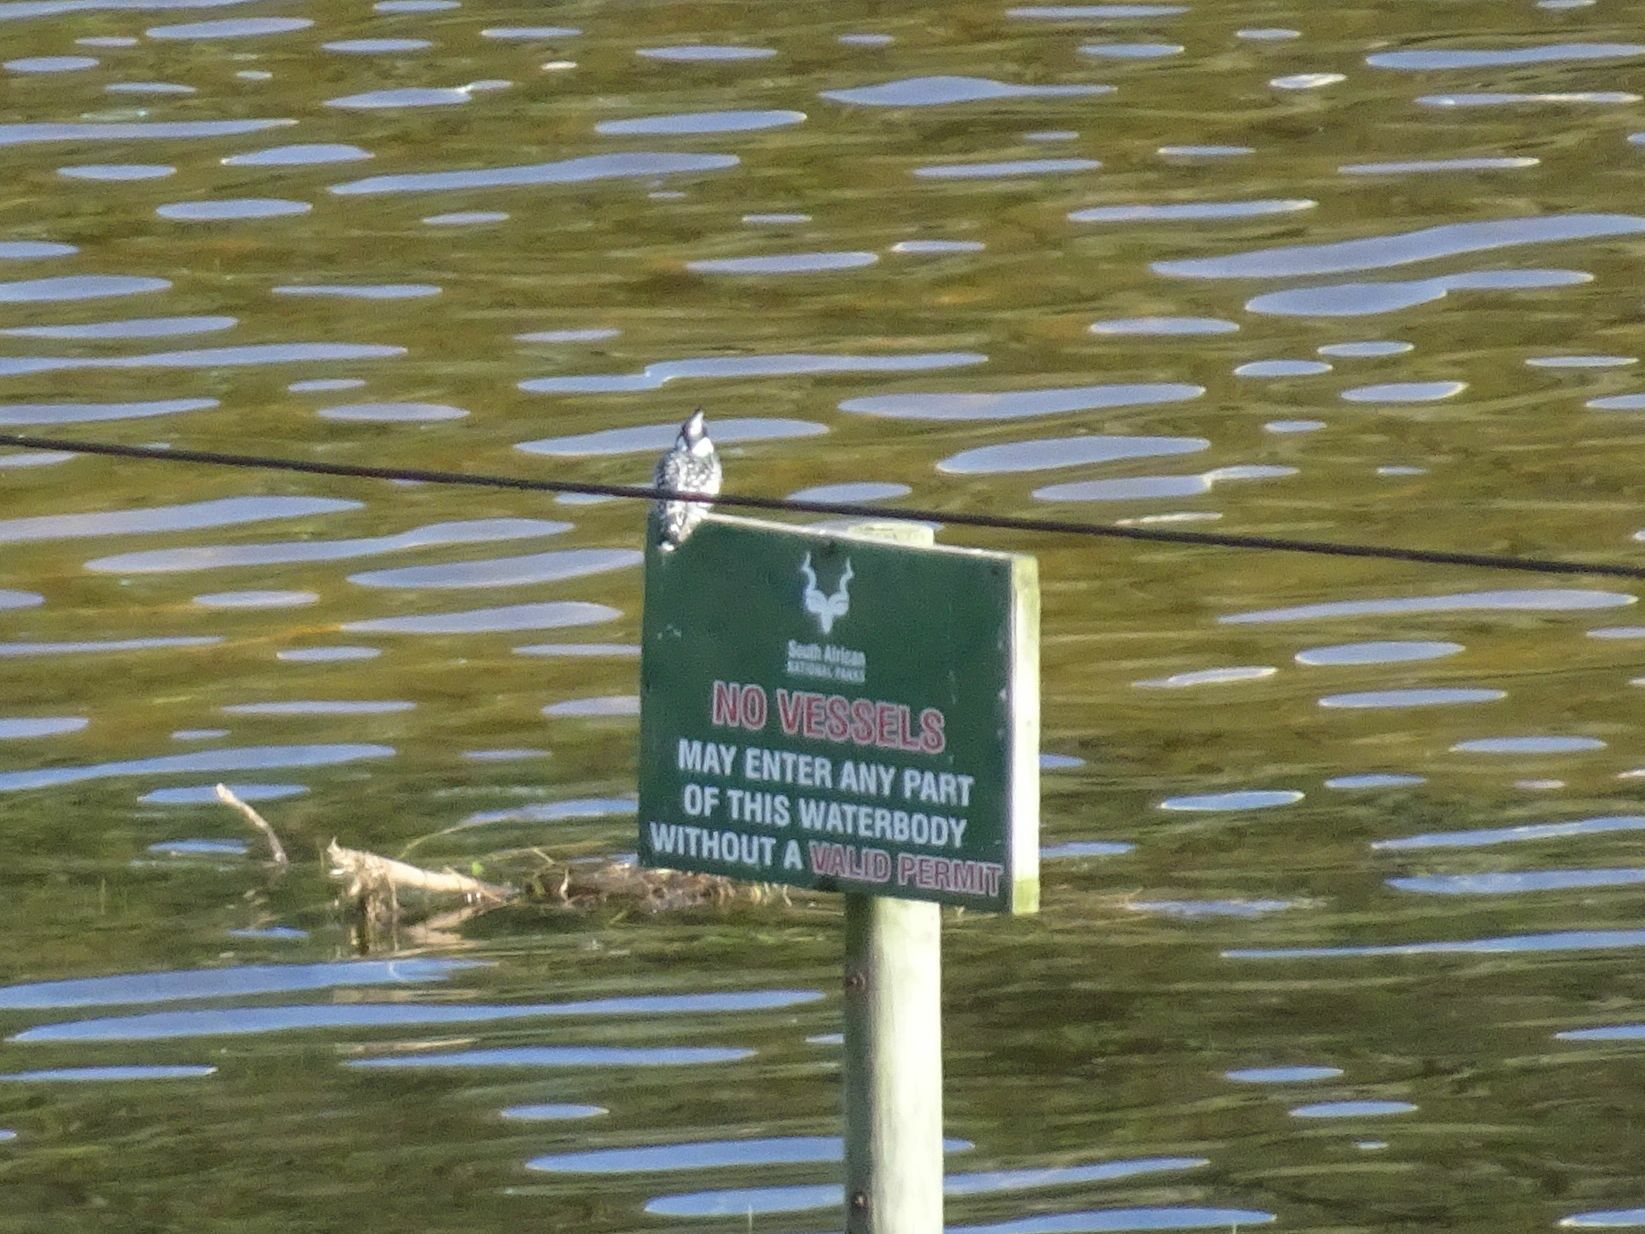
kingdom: Animalia
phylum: Chordata
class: Aves
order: Coraciiformes
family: Alcedinidae
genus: Ceryle
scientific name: Ceryle rudis
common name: Pied kingfisher
